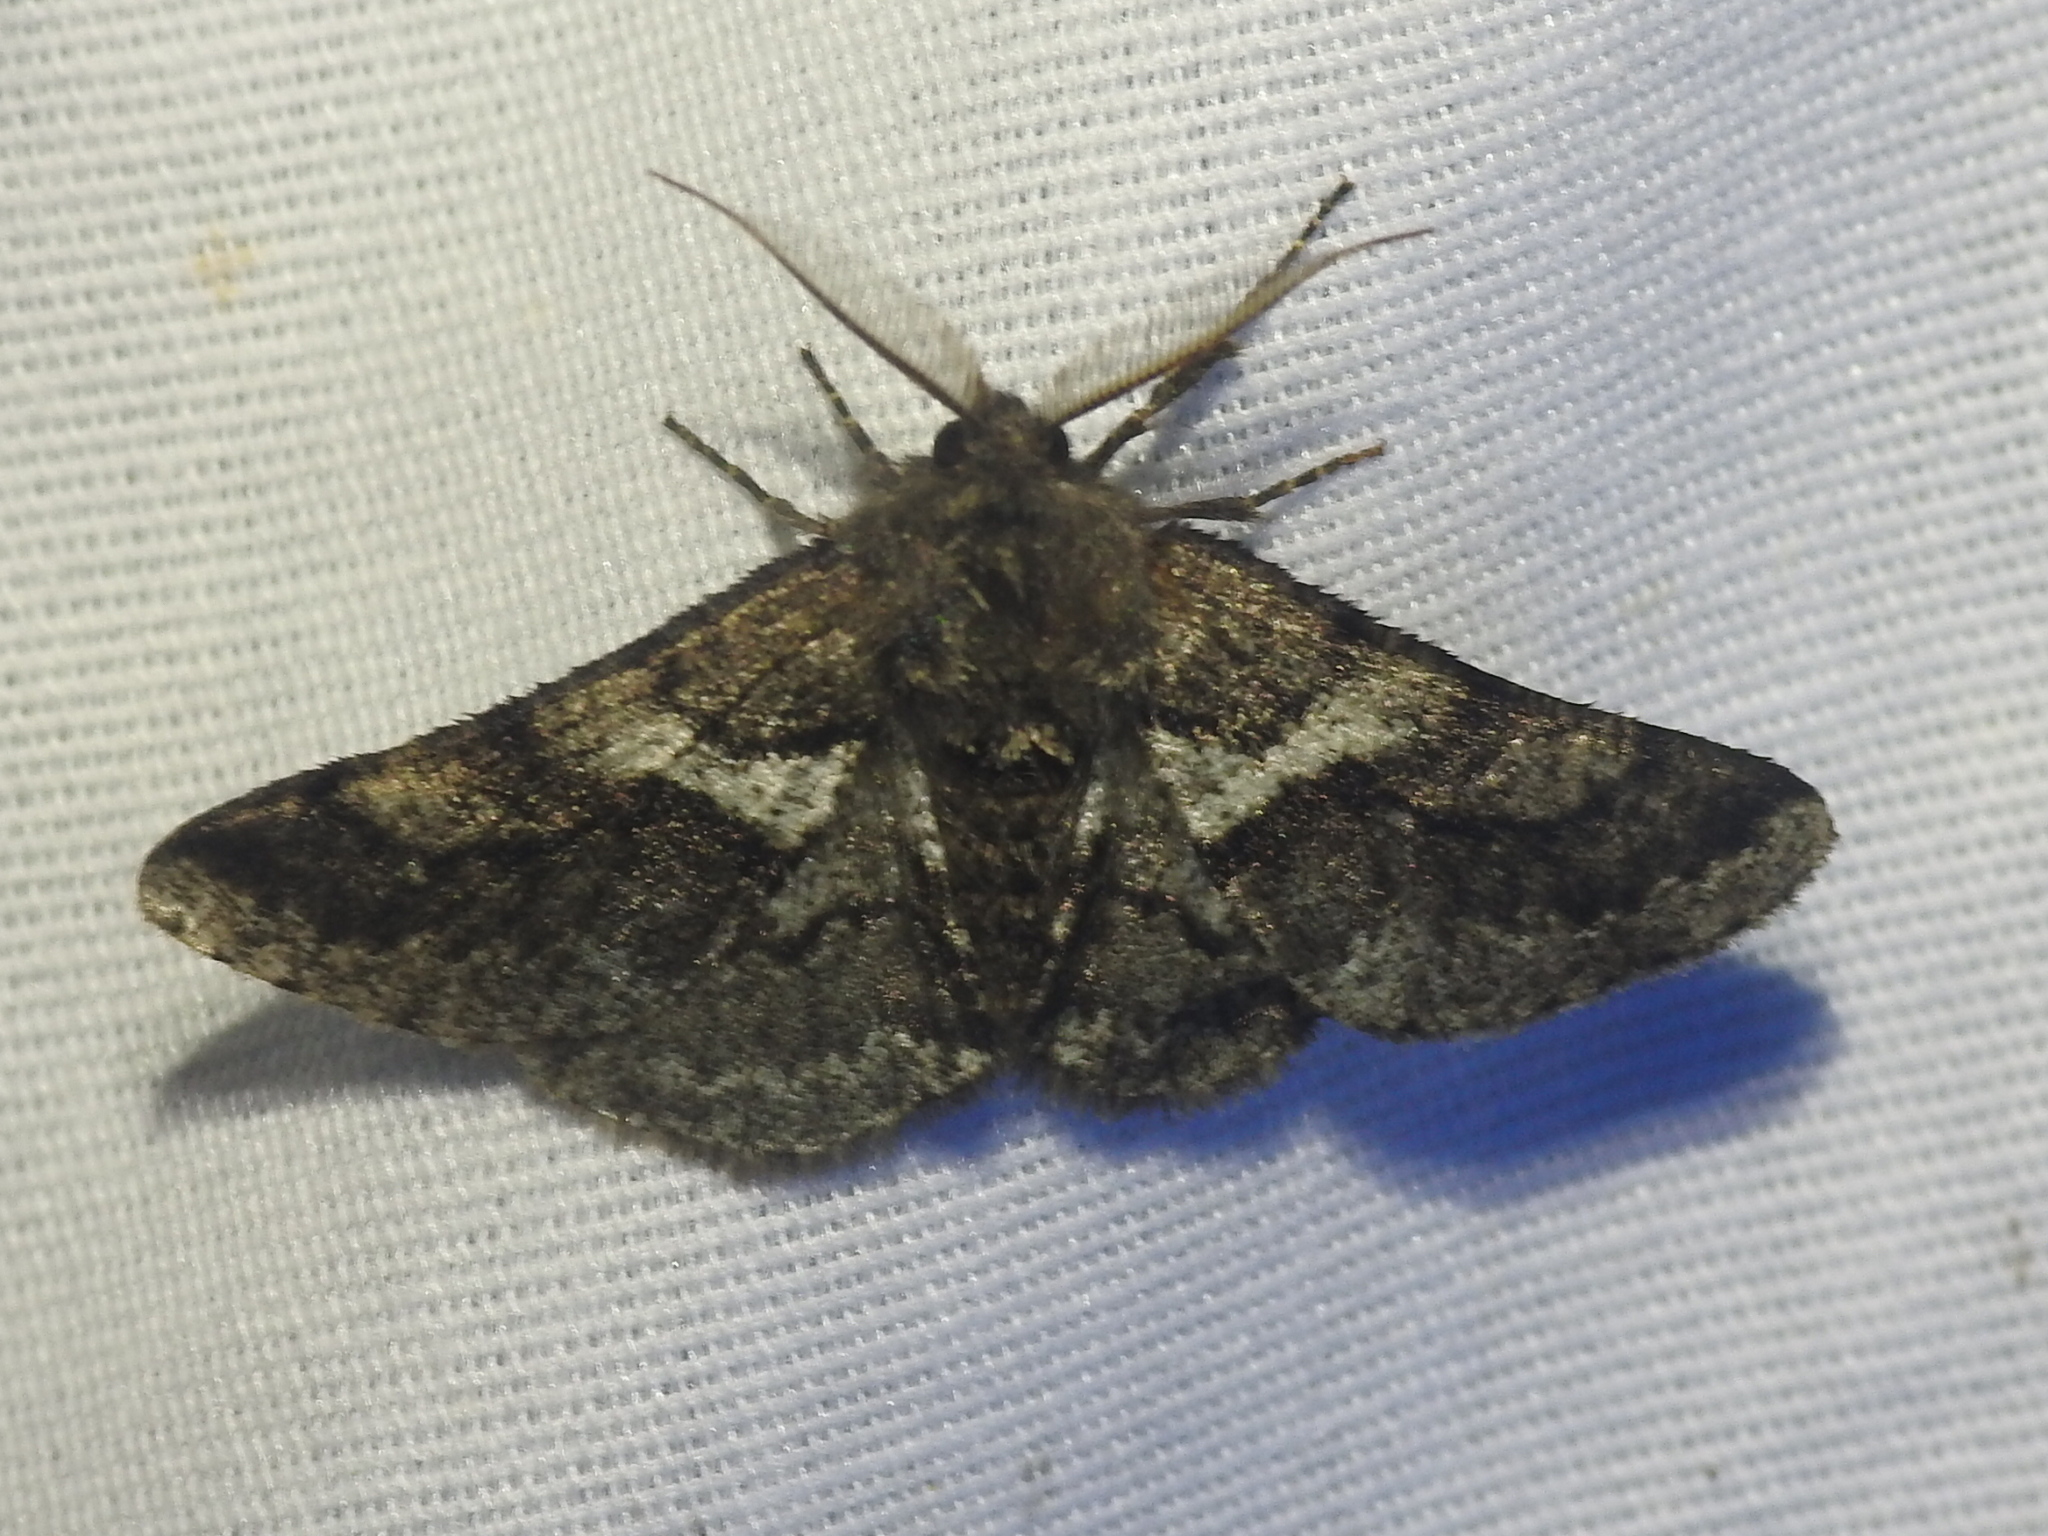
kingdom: Animalia
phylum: Arthropoda
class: Insecta
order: Lepidoptera
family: Geometridae
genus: Lycia
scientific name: Lycia ypsilon
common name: Wooly gray
